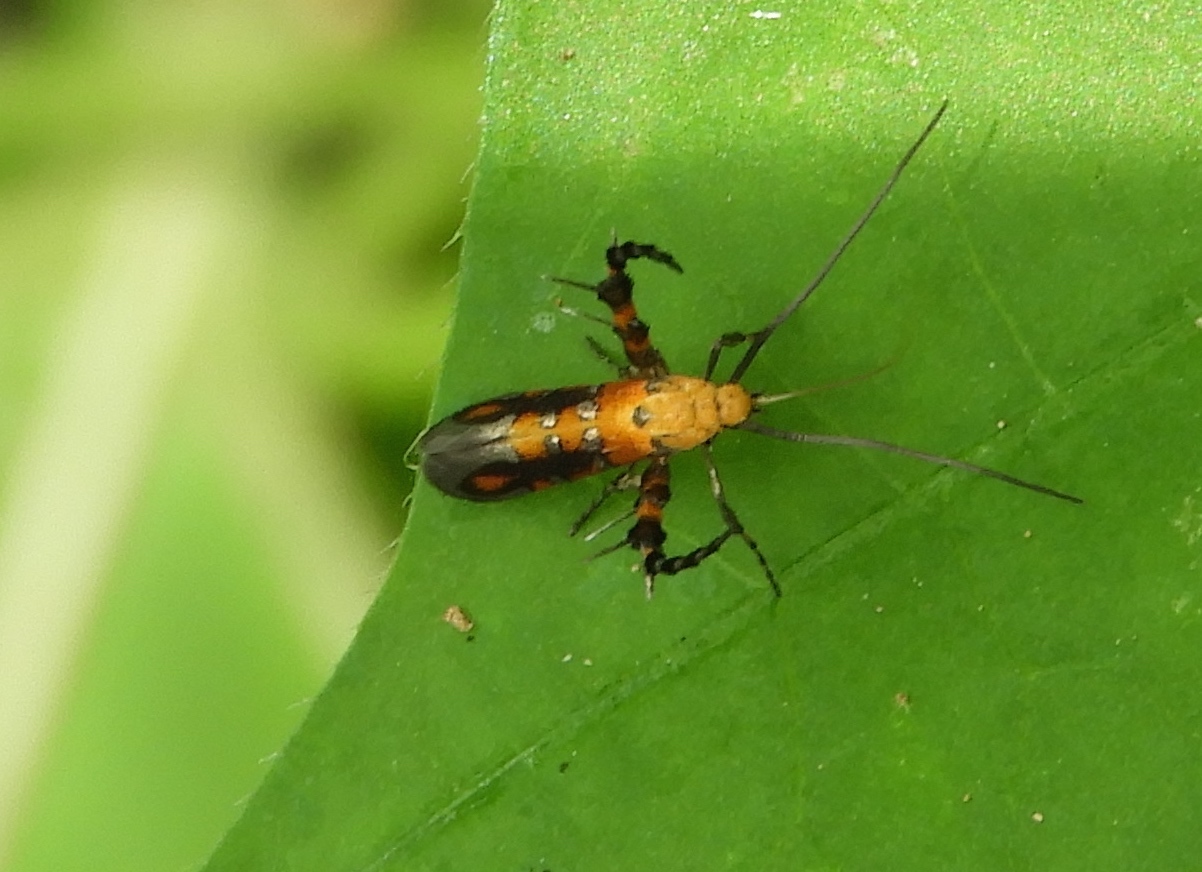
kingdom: Animalia
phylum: Arthropoda
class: Insecta
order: Lepidoptera
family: Heliodinidae
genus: Heliodines
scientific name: Heliodines
